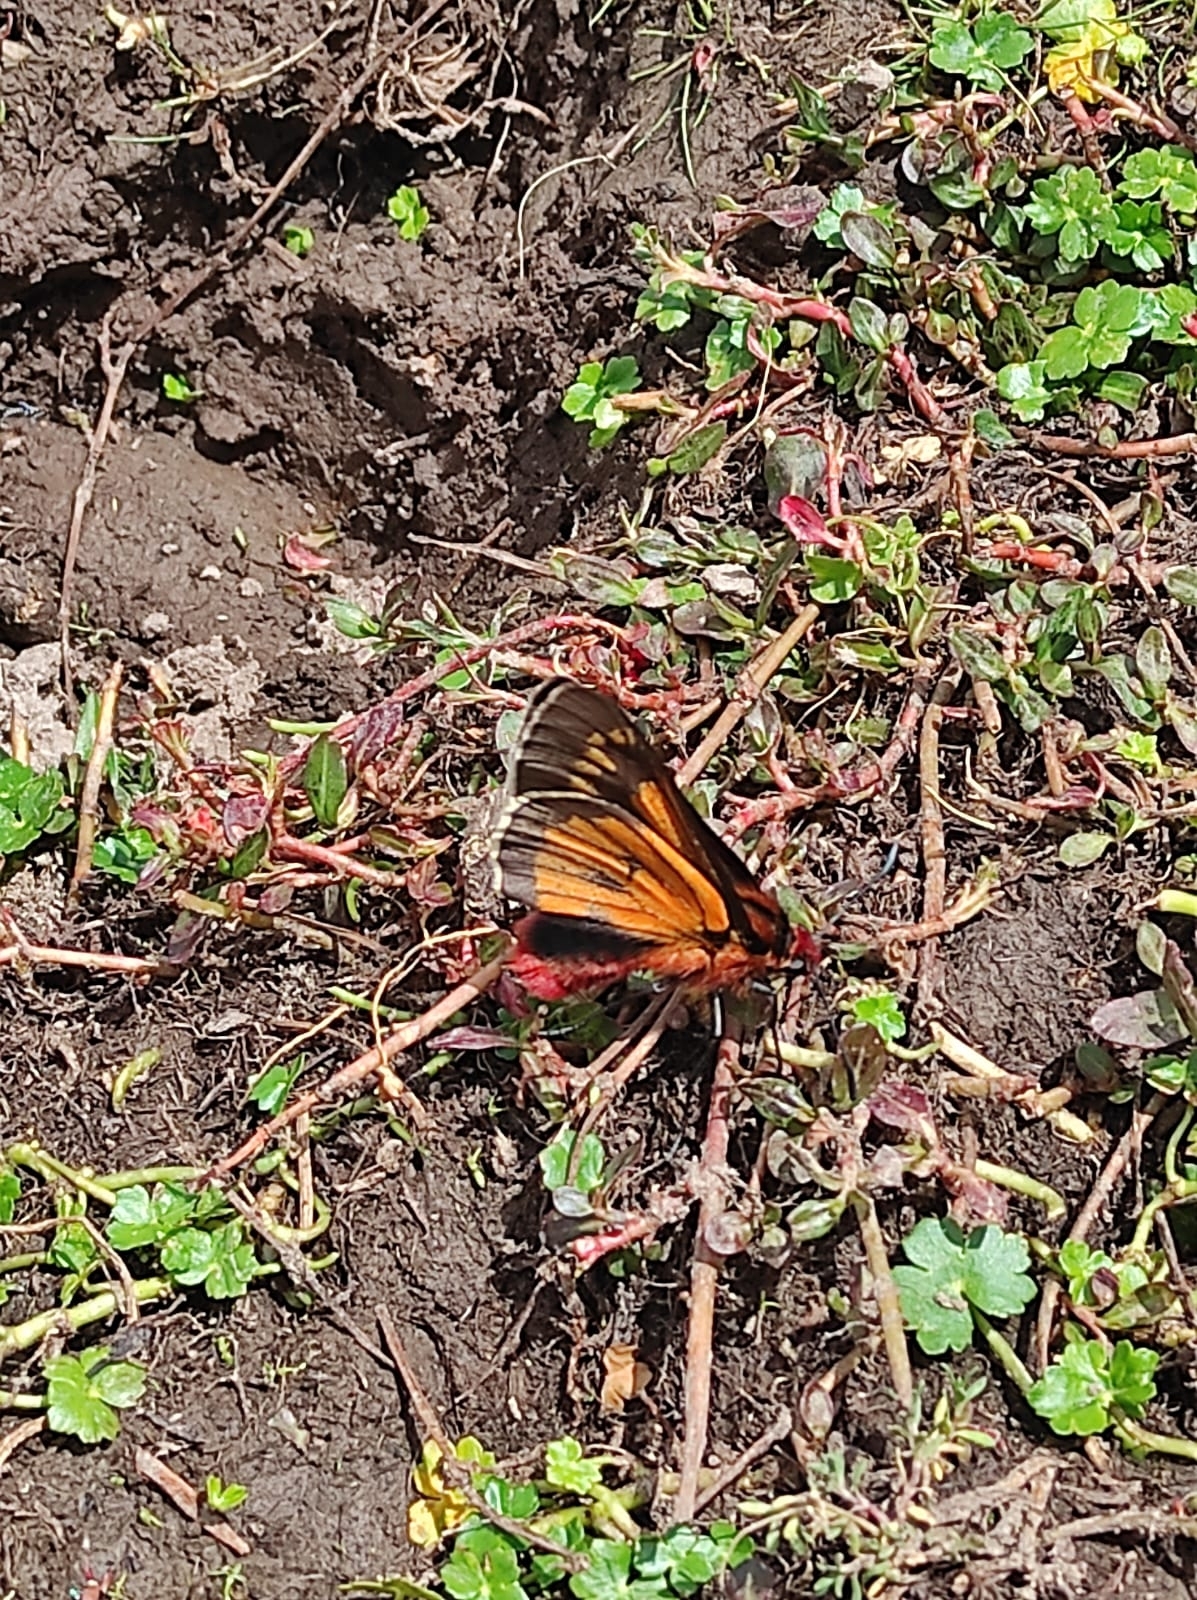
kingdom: Animalia
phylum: Arthropoda
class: Insecta
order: Lepidoptera
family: Hesperiidae
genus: Metardaris
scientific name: Metardaris cosinga
